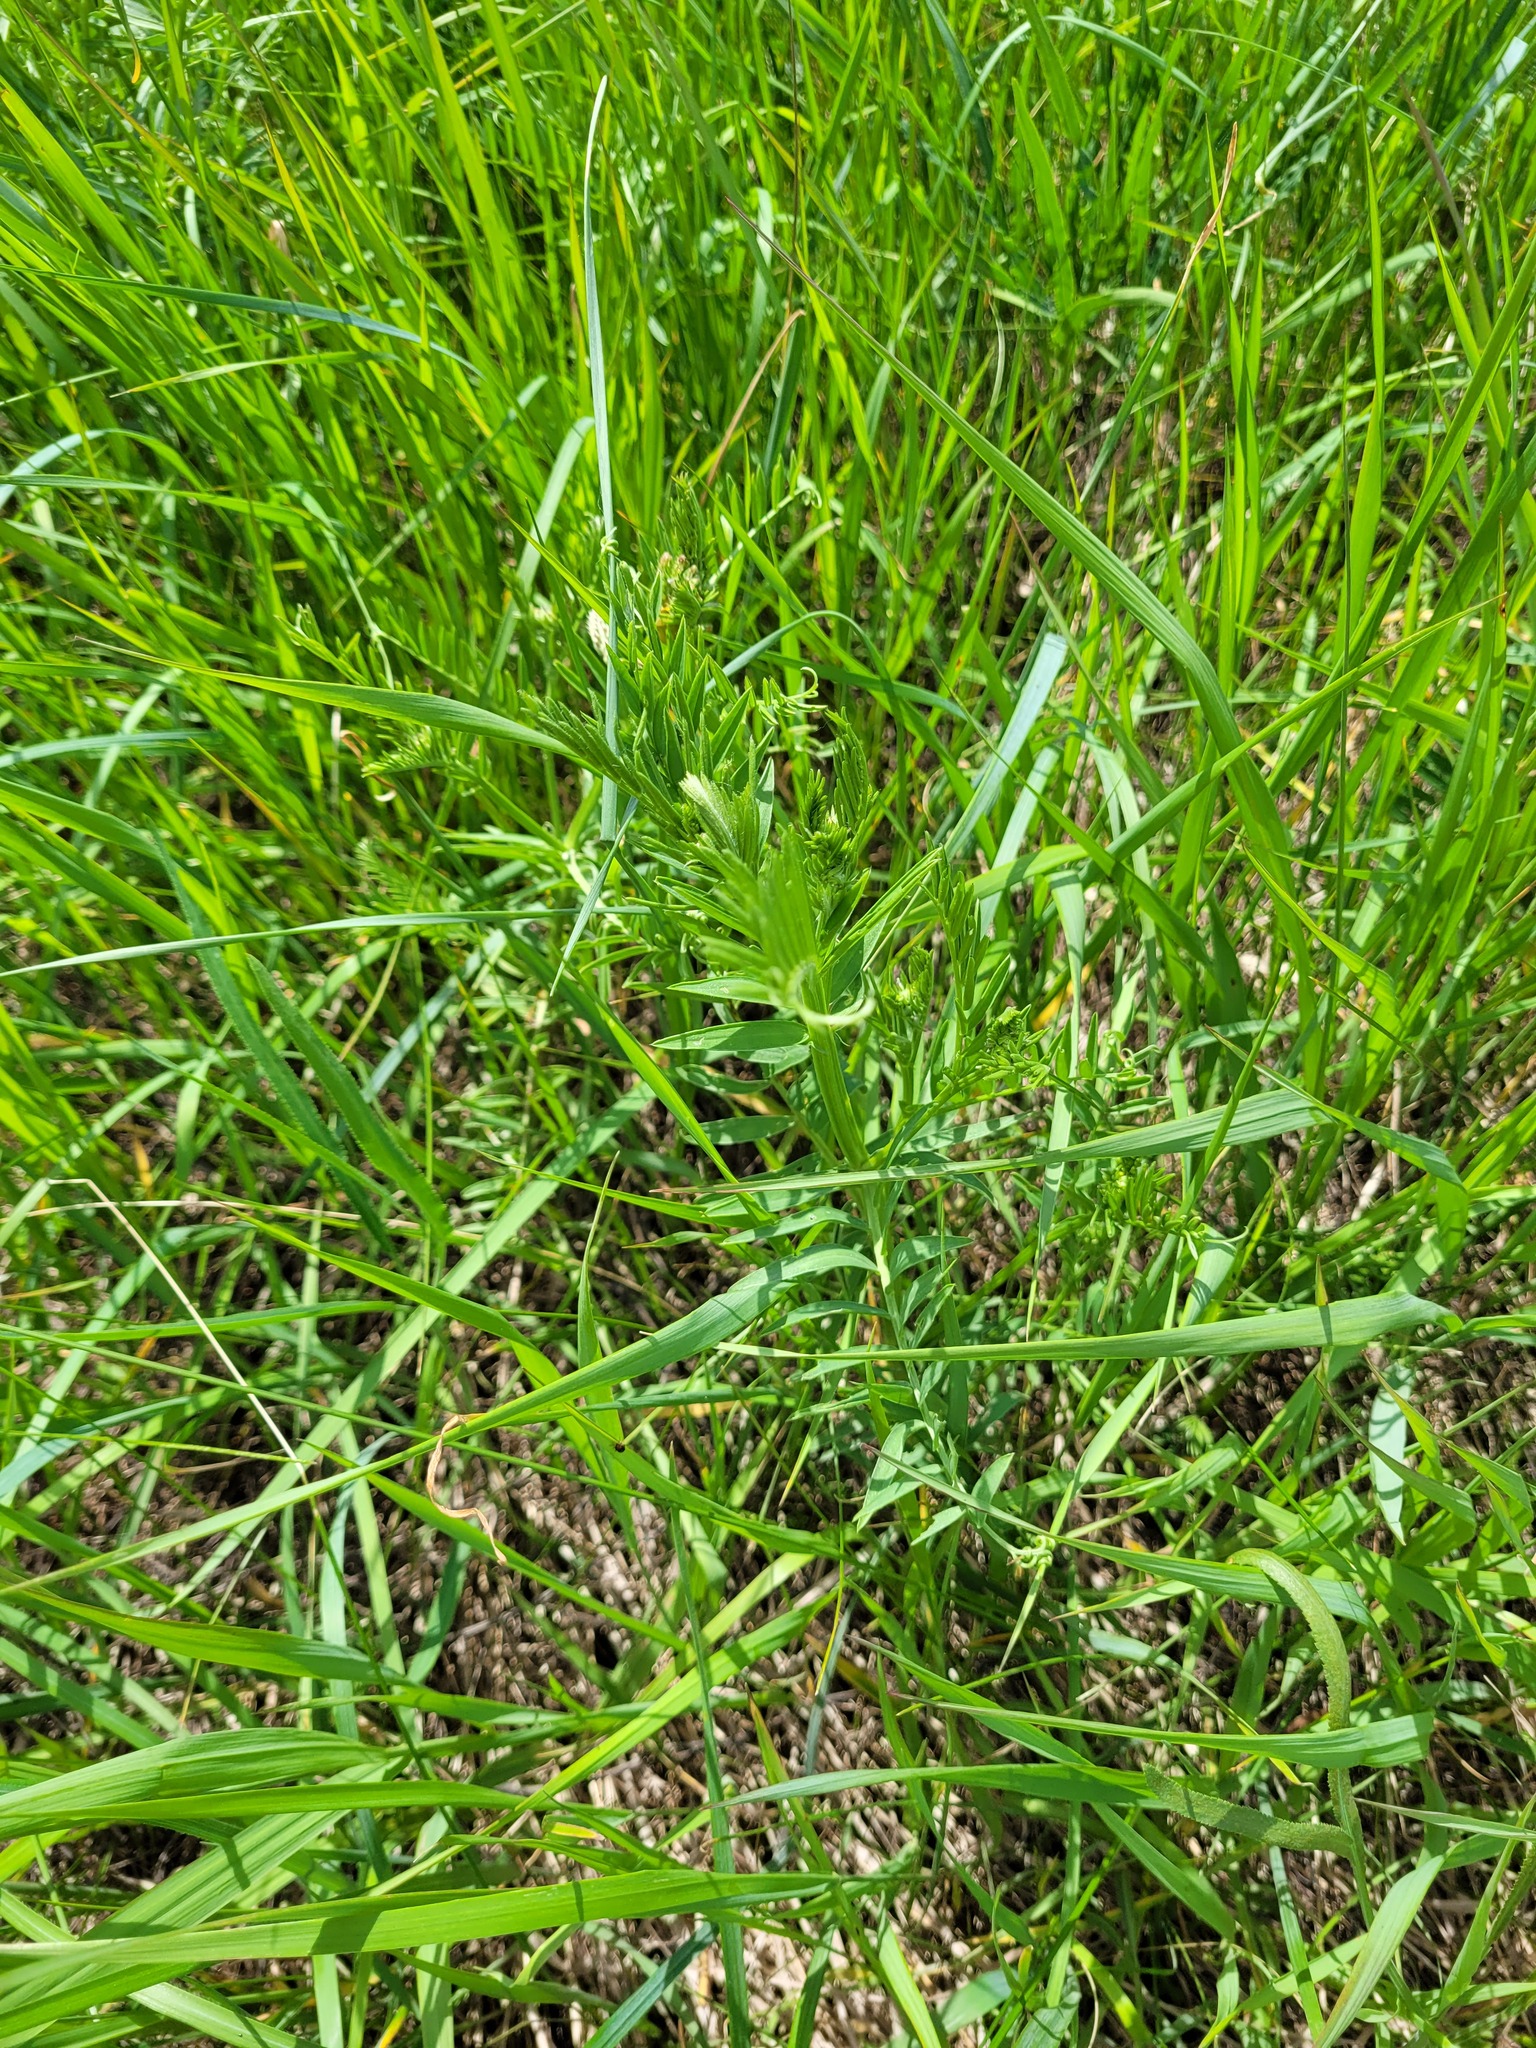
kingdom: Plantae
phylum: Tracheophyta
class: Magnoliopsida
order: Fabales
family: Fabaceae
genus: Vicia
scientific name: Vicia tenuifolia
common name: Fine-leaved vetch
